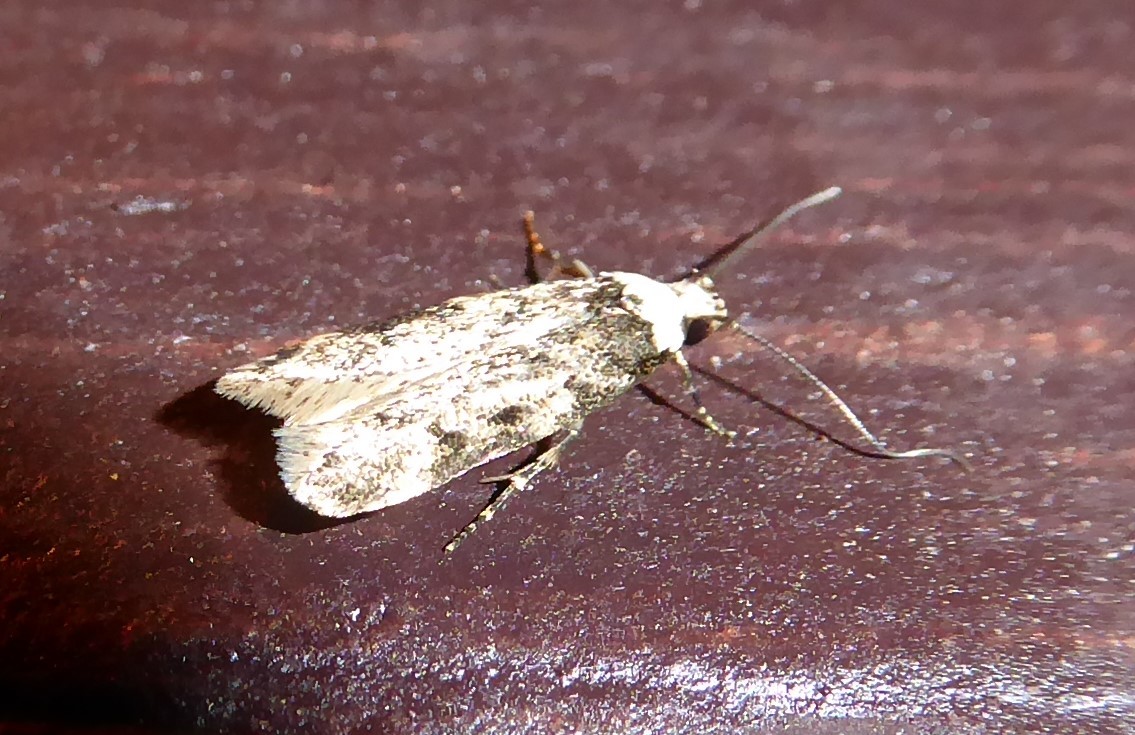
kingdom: Animalia
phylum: Arthropoda
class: Insecta
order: Lepidoptera
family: Oecophoridae
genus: Endrosis
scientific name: Endrosis sarcitrella
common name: White-shouldered house moth
